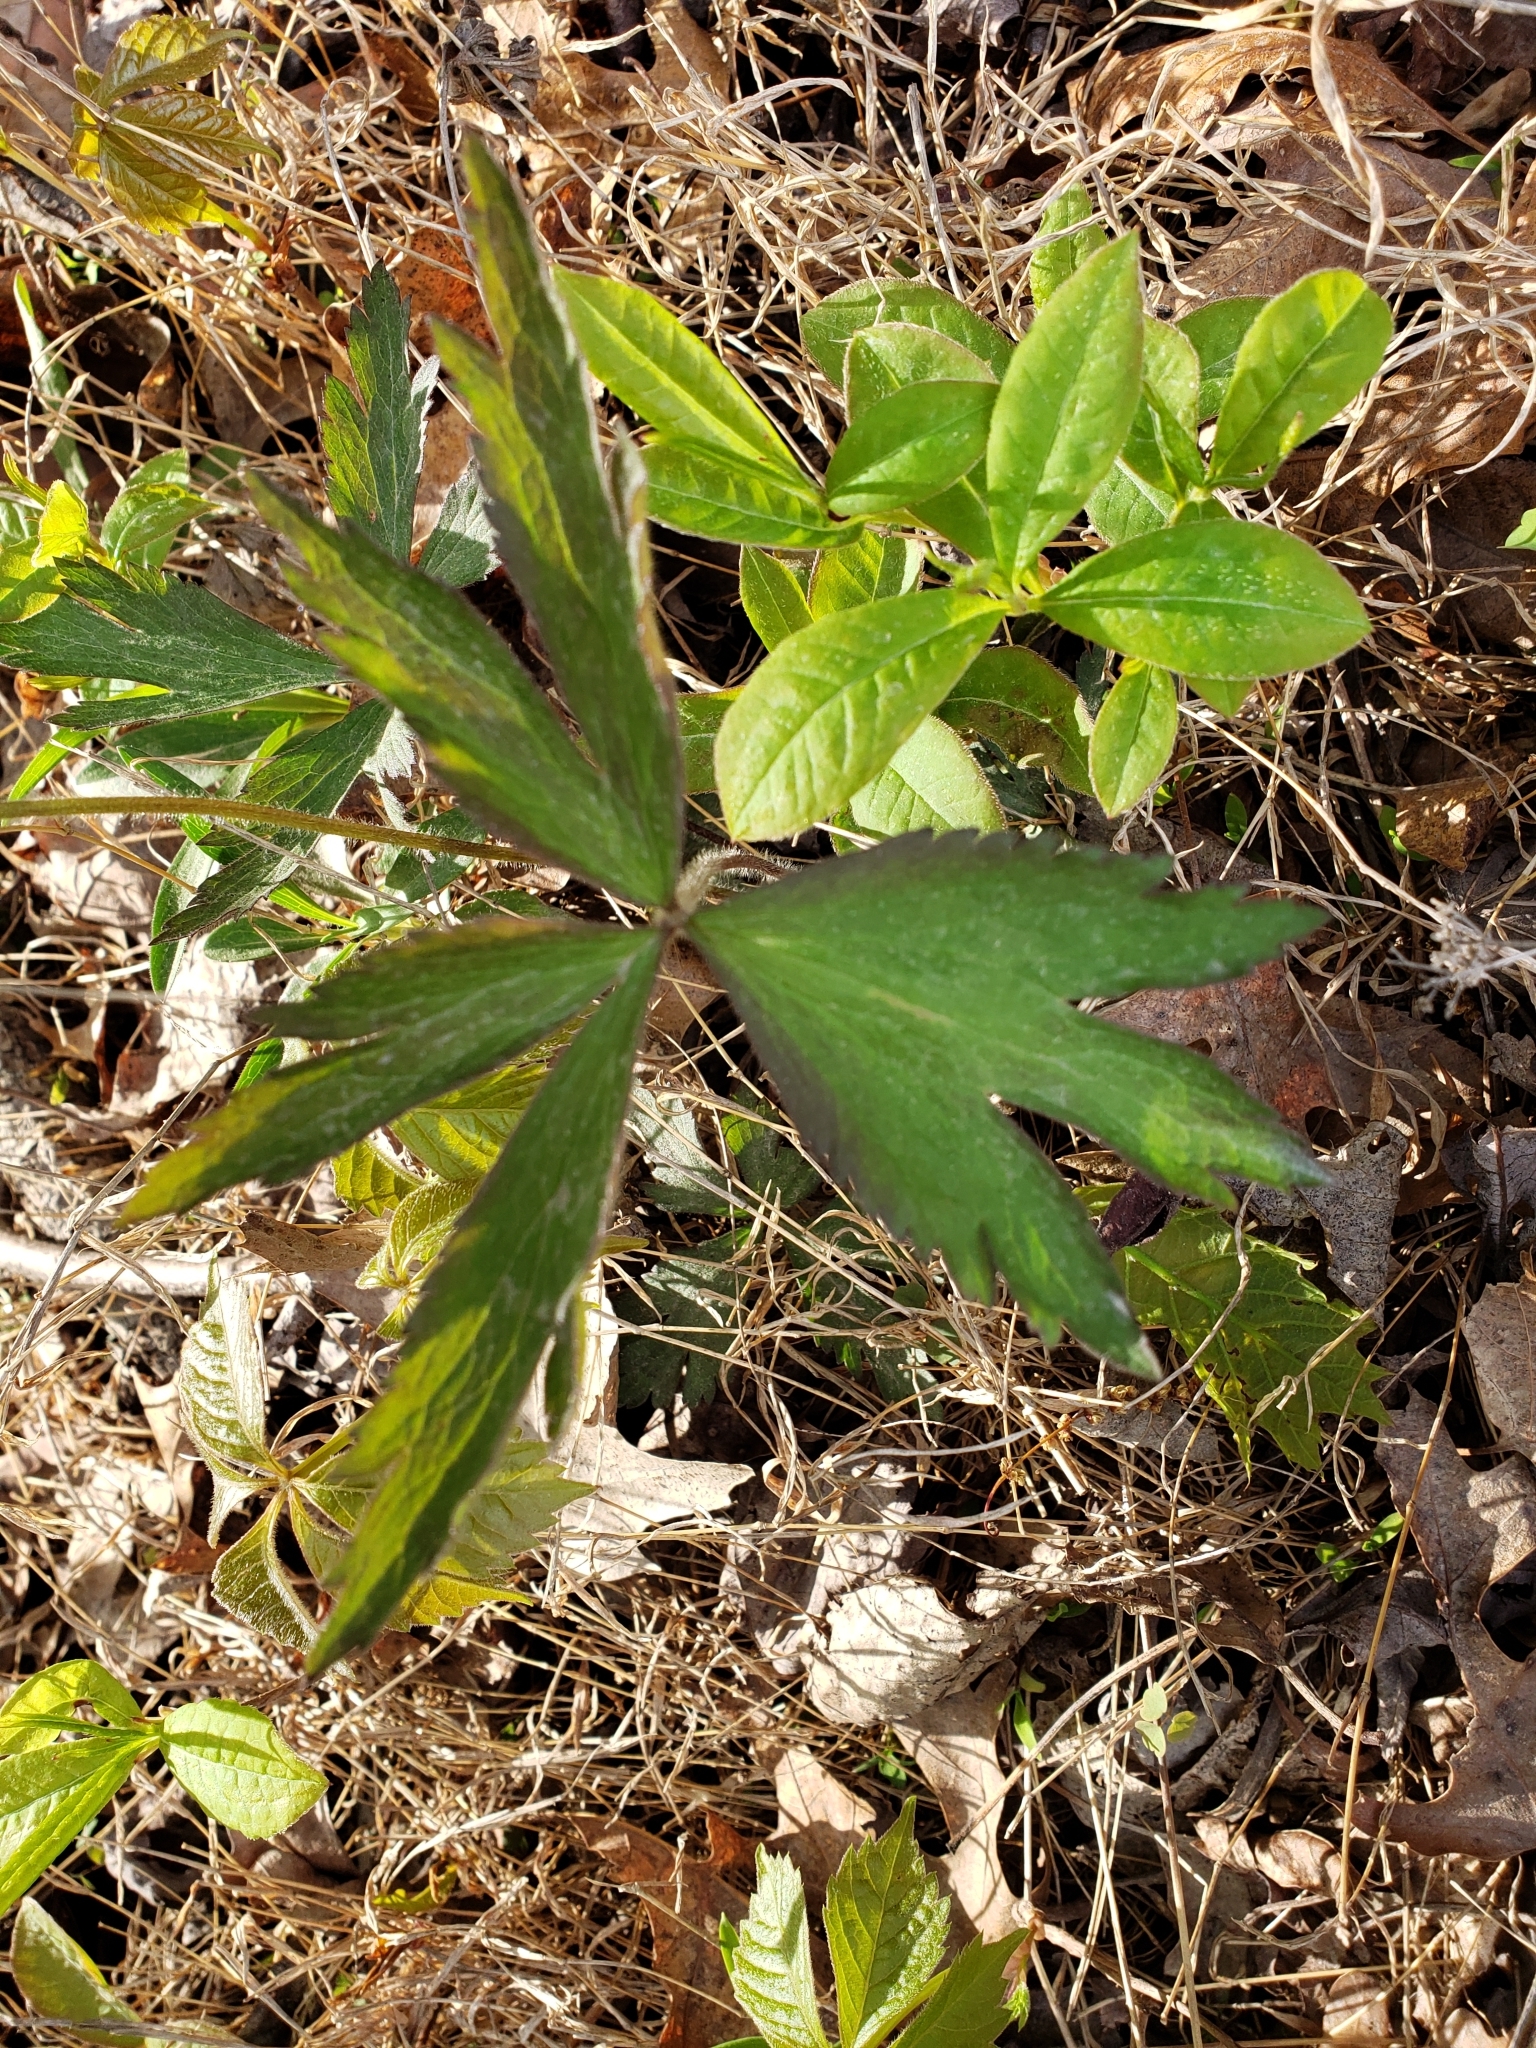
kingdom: Plantae
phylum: Tracheophyta
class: Magnoliopsida
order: Ranunculales
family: Ranunculaceae
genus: Anemonastrum
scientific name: Anemonastrum canadense
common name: Canada anemone
